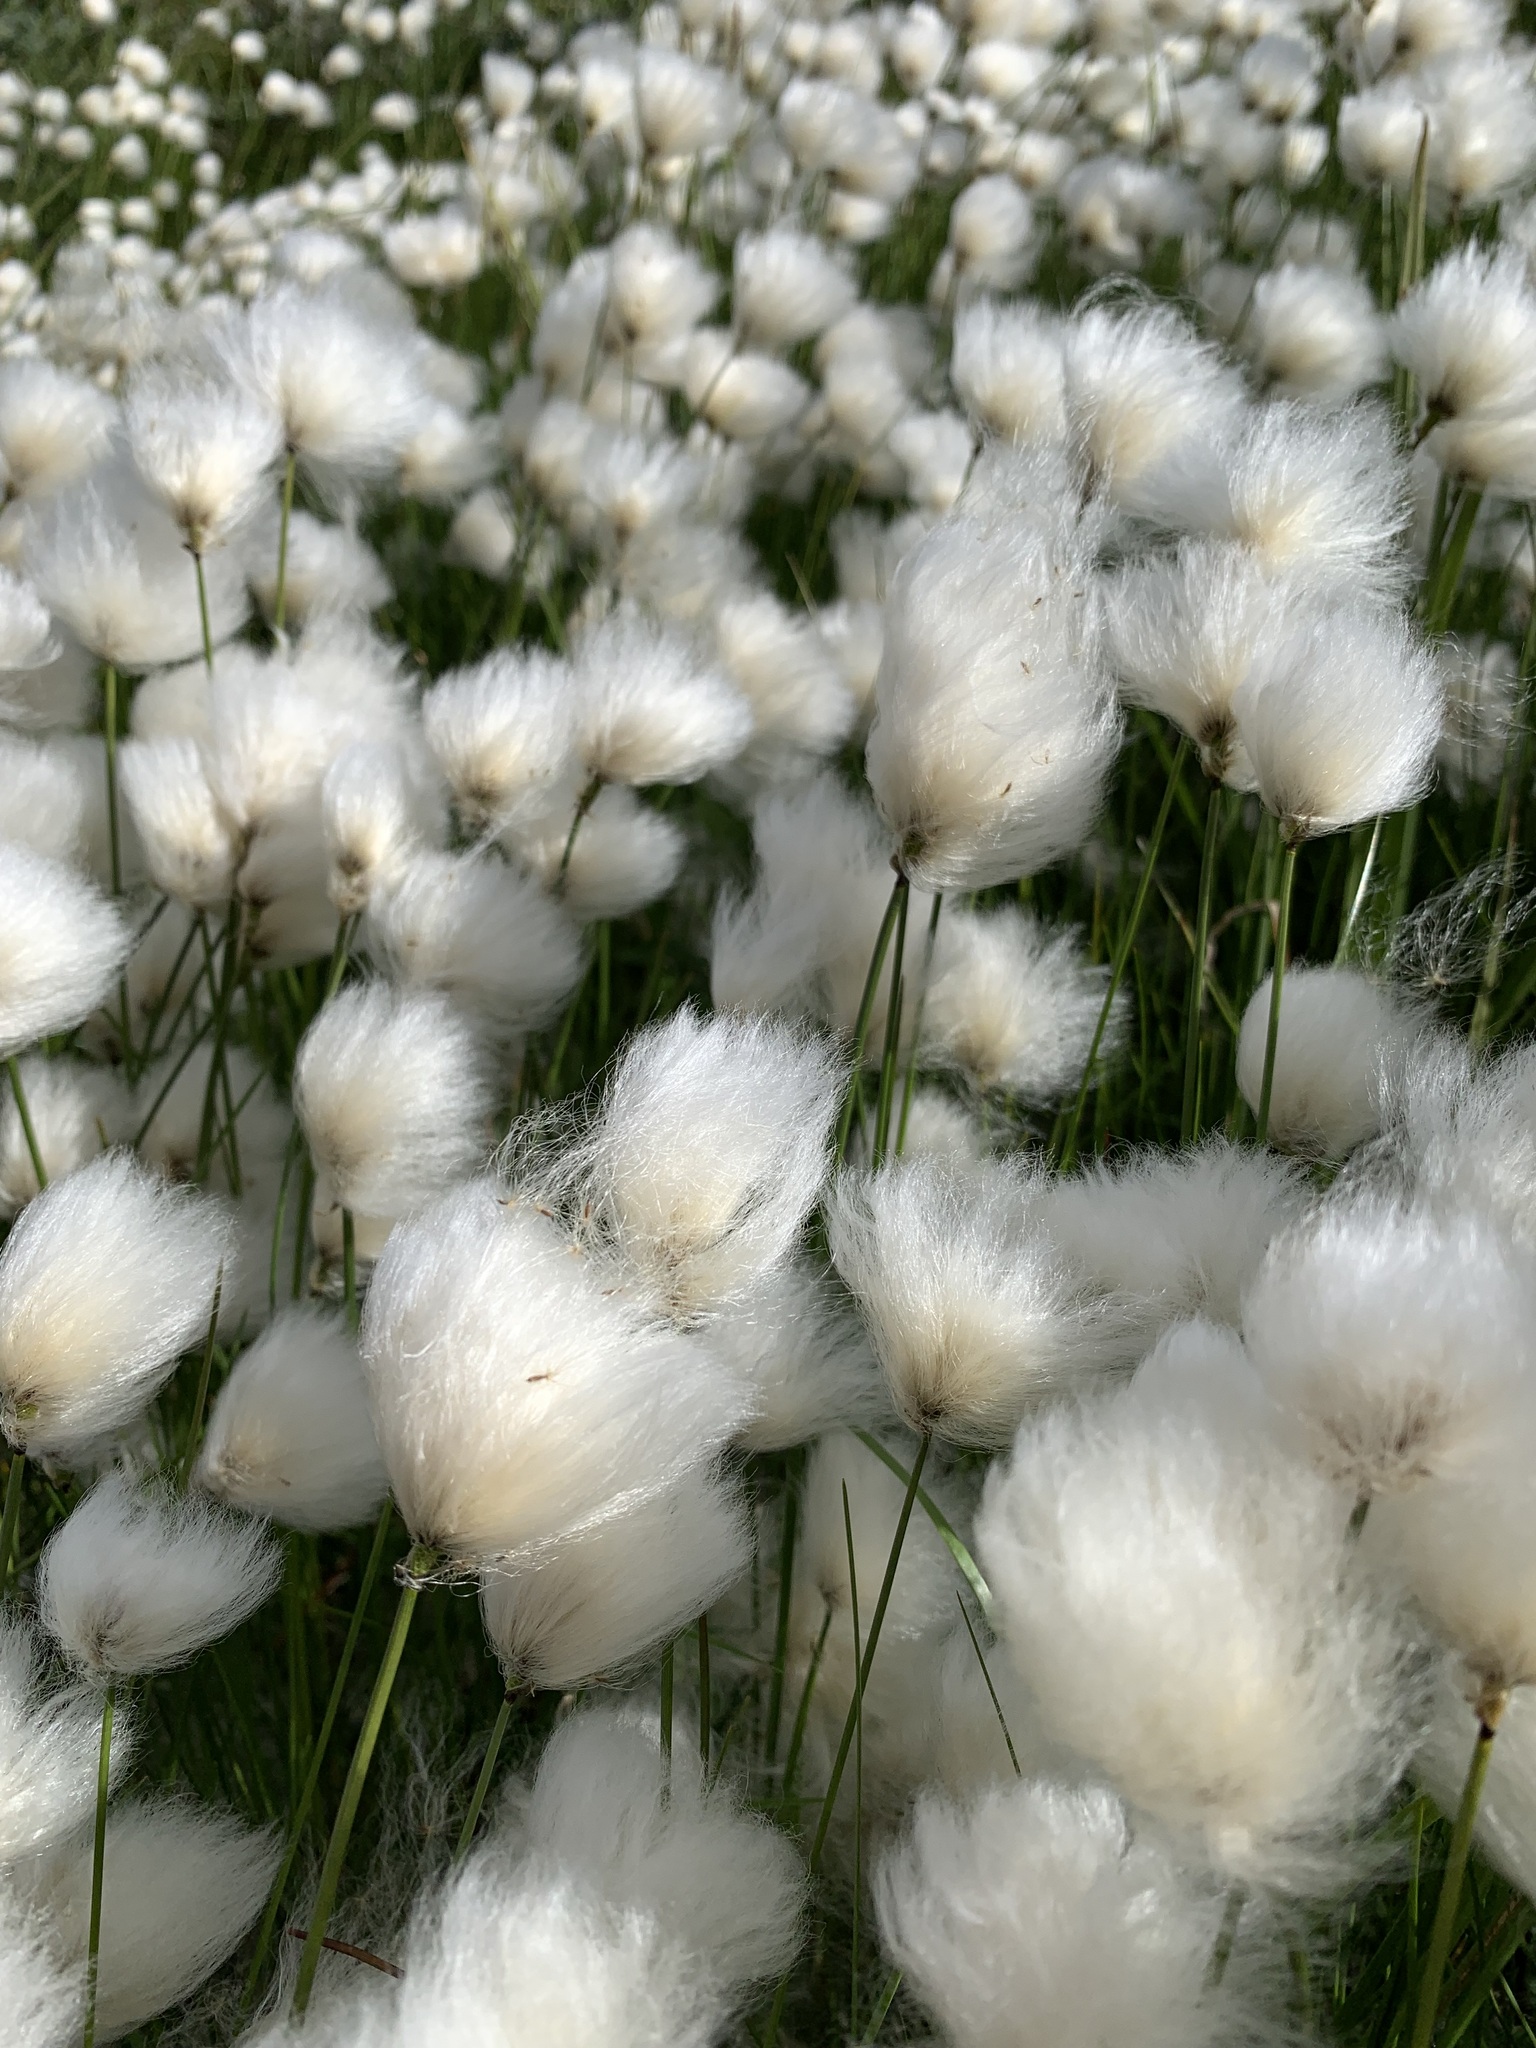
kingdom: Plantae
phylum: Tracheophyta
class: Liliopsida
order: Poales
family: Cyperaceae
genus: Eriophorum
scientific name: Eriophorum scheuchzeri
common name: Scheuchzer's cottongrass
